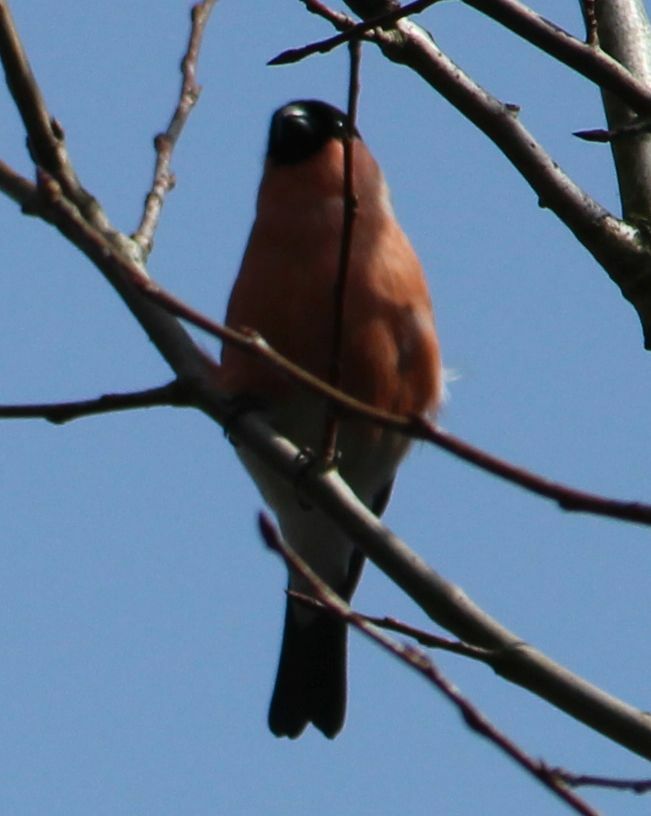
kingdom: Animalia
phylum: Chordata
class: Aves
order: Passeriformes
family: Fringillidae
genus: Pyrrhula
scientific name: Pyrrhula pyrrhula
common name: Eurasian bullfinch
